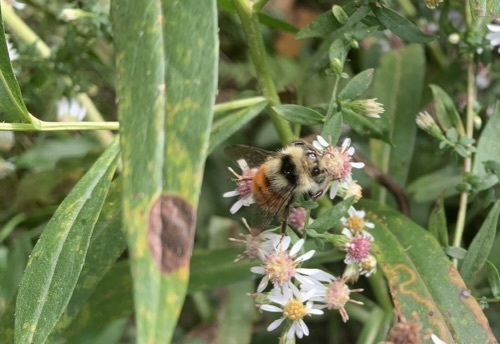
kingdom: Animalia
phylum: Arthropoda
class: Insecta
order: Hymenoptera
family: Apidae
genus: Bombus
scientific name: Bombus ternarius
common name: Tri-colored bumble bee
